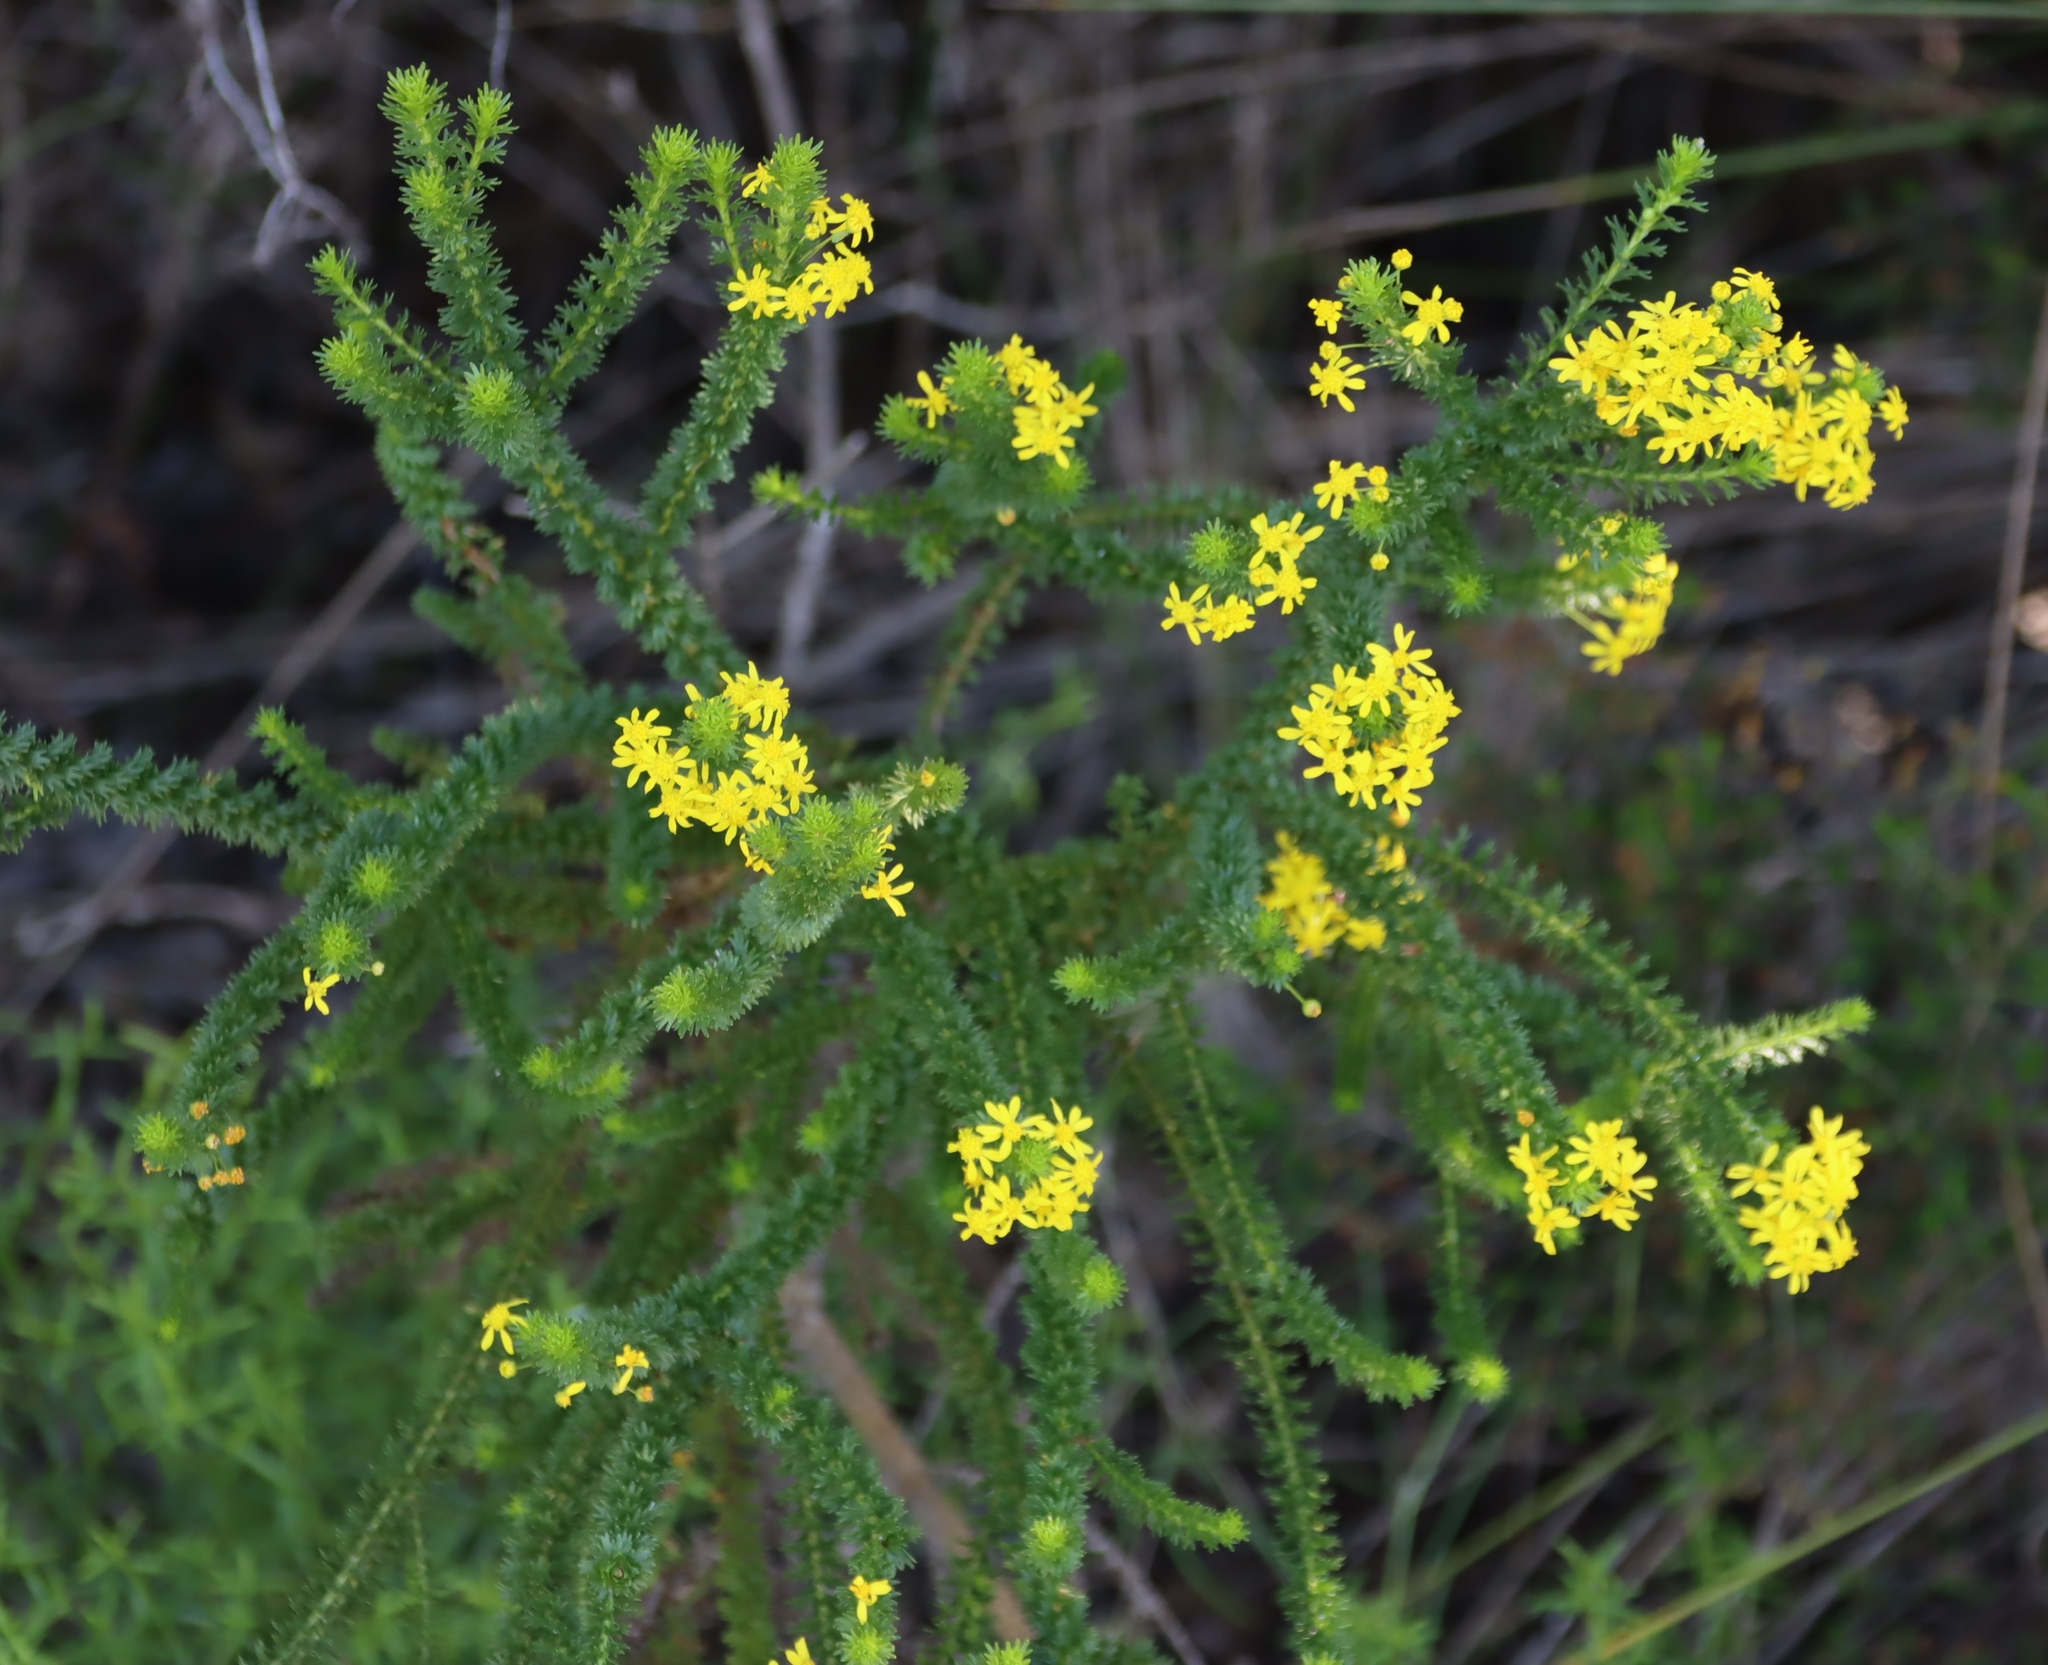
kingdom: Plantae
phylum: Tracheophyta
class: Magnoliopsida
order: Asterales
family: Asteraceae
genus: Euryops
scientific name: Euryops virgineus
